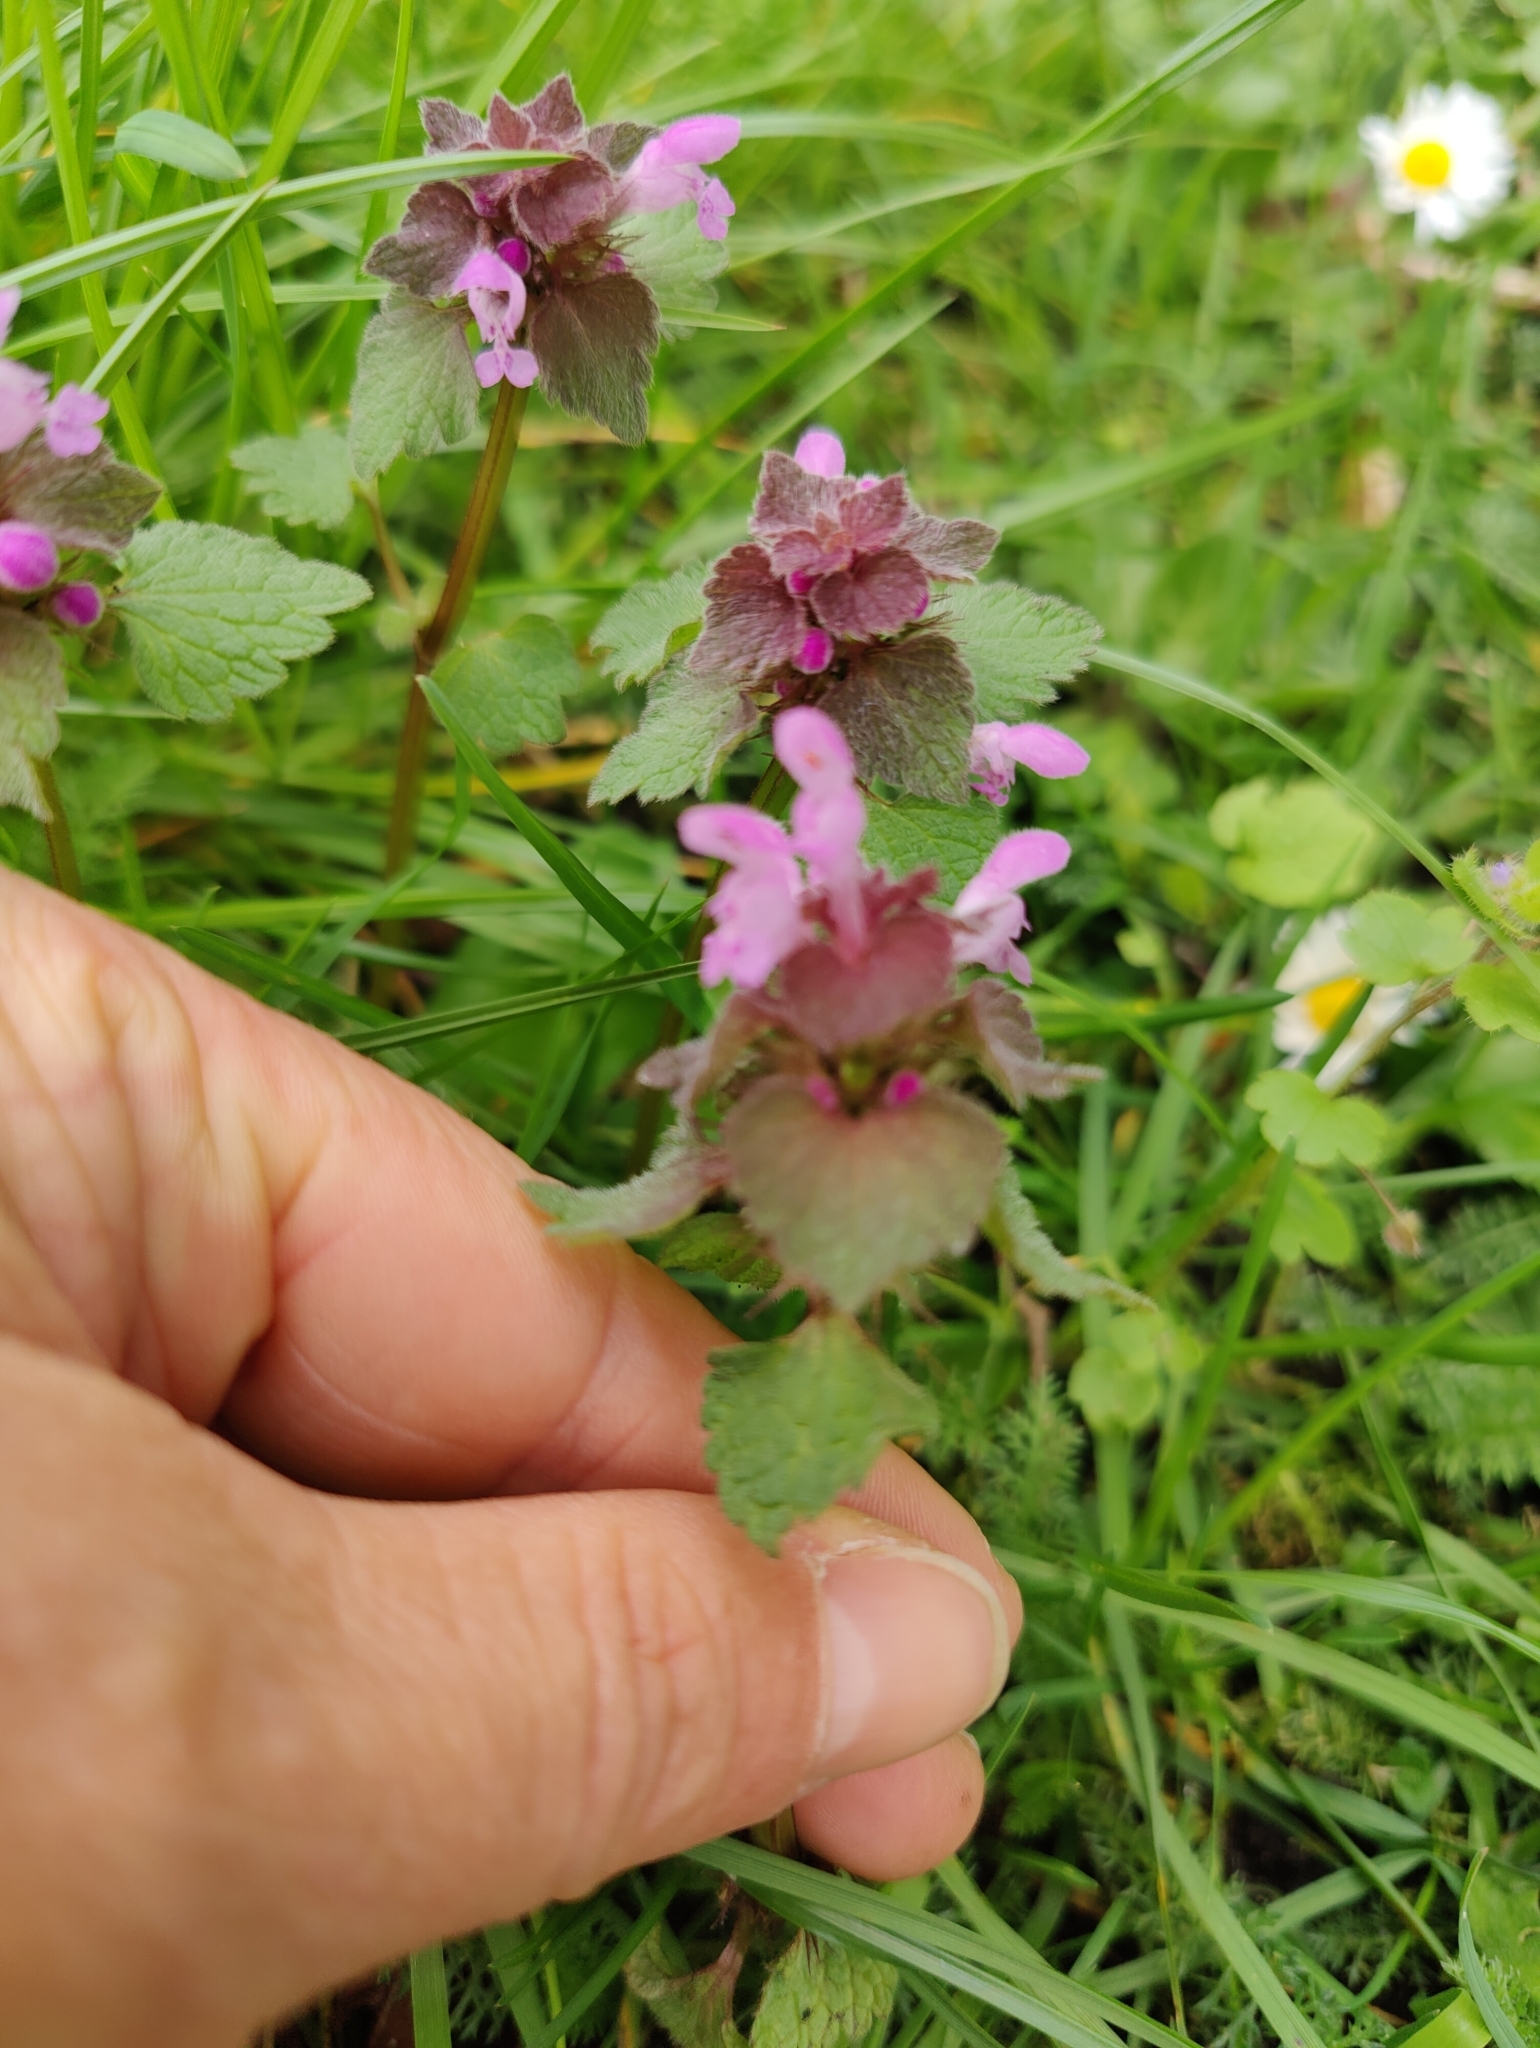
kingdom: Plantae
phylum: Tracheophyta
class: Magnoliopsida
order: Lamiales
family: Lamiaceae
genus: Lamium
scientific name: Lamium purpureum
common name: Red dead-nettle
